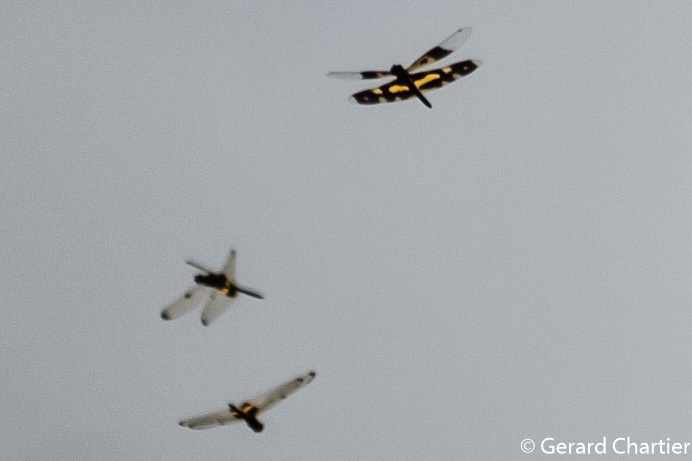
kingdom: Animalia
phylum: Arthropoda
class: Insecta
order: Odonata
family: Libellulidae
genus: Rhyothemis
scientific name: Rhyothemis variegata
